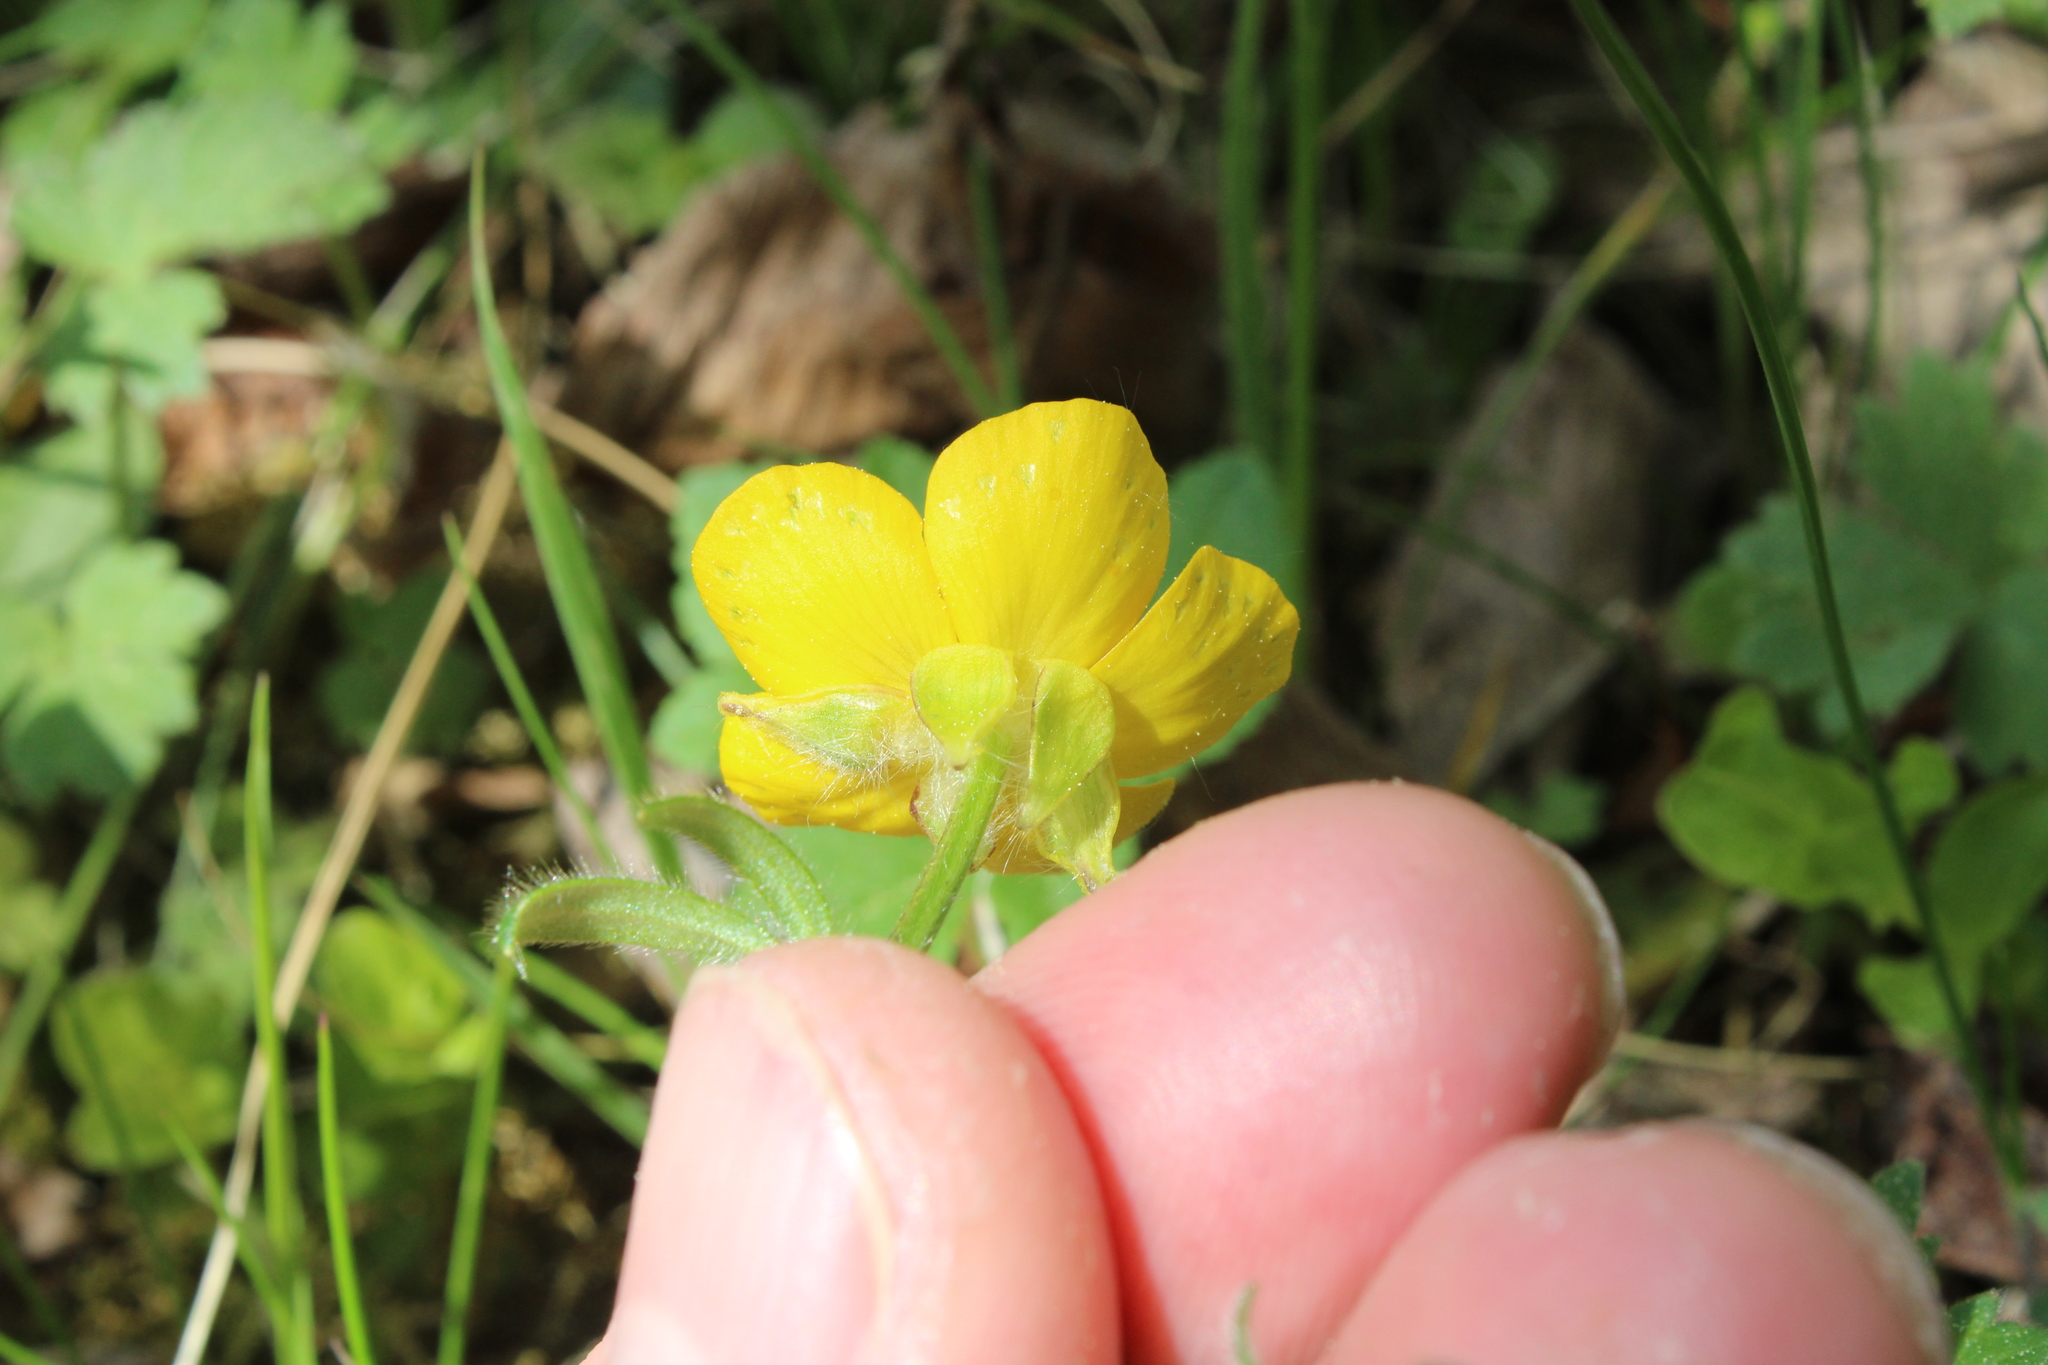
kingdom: Plantae
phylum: Tracheophyta
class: Magnoliopsida
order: Ranunculales
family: Ranunculaceae
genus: Ranunculus
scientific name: Ranunculus bulbosus
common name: Bulbous buttercup
